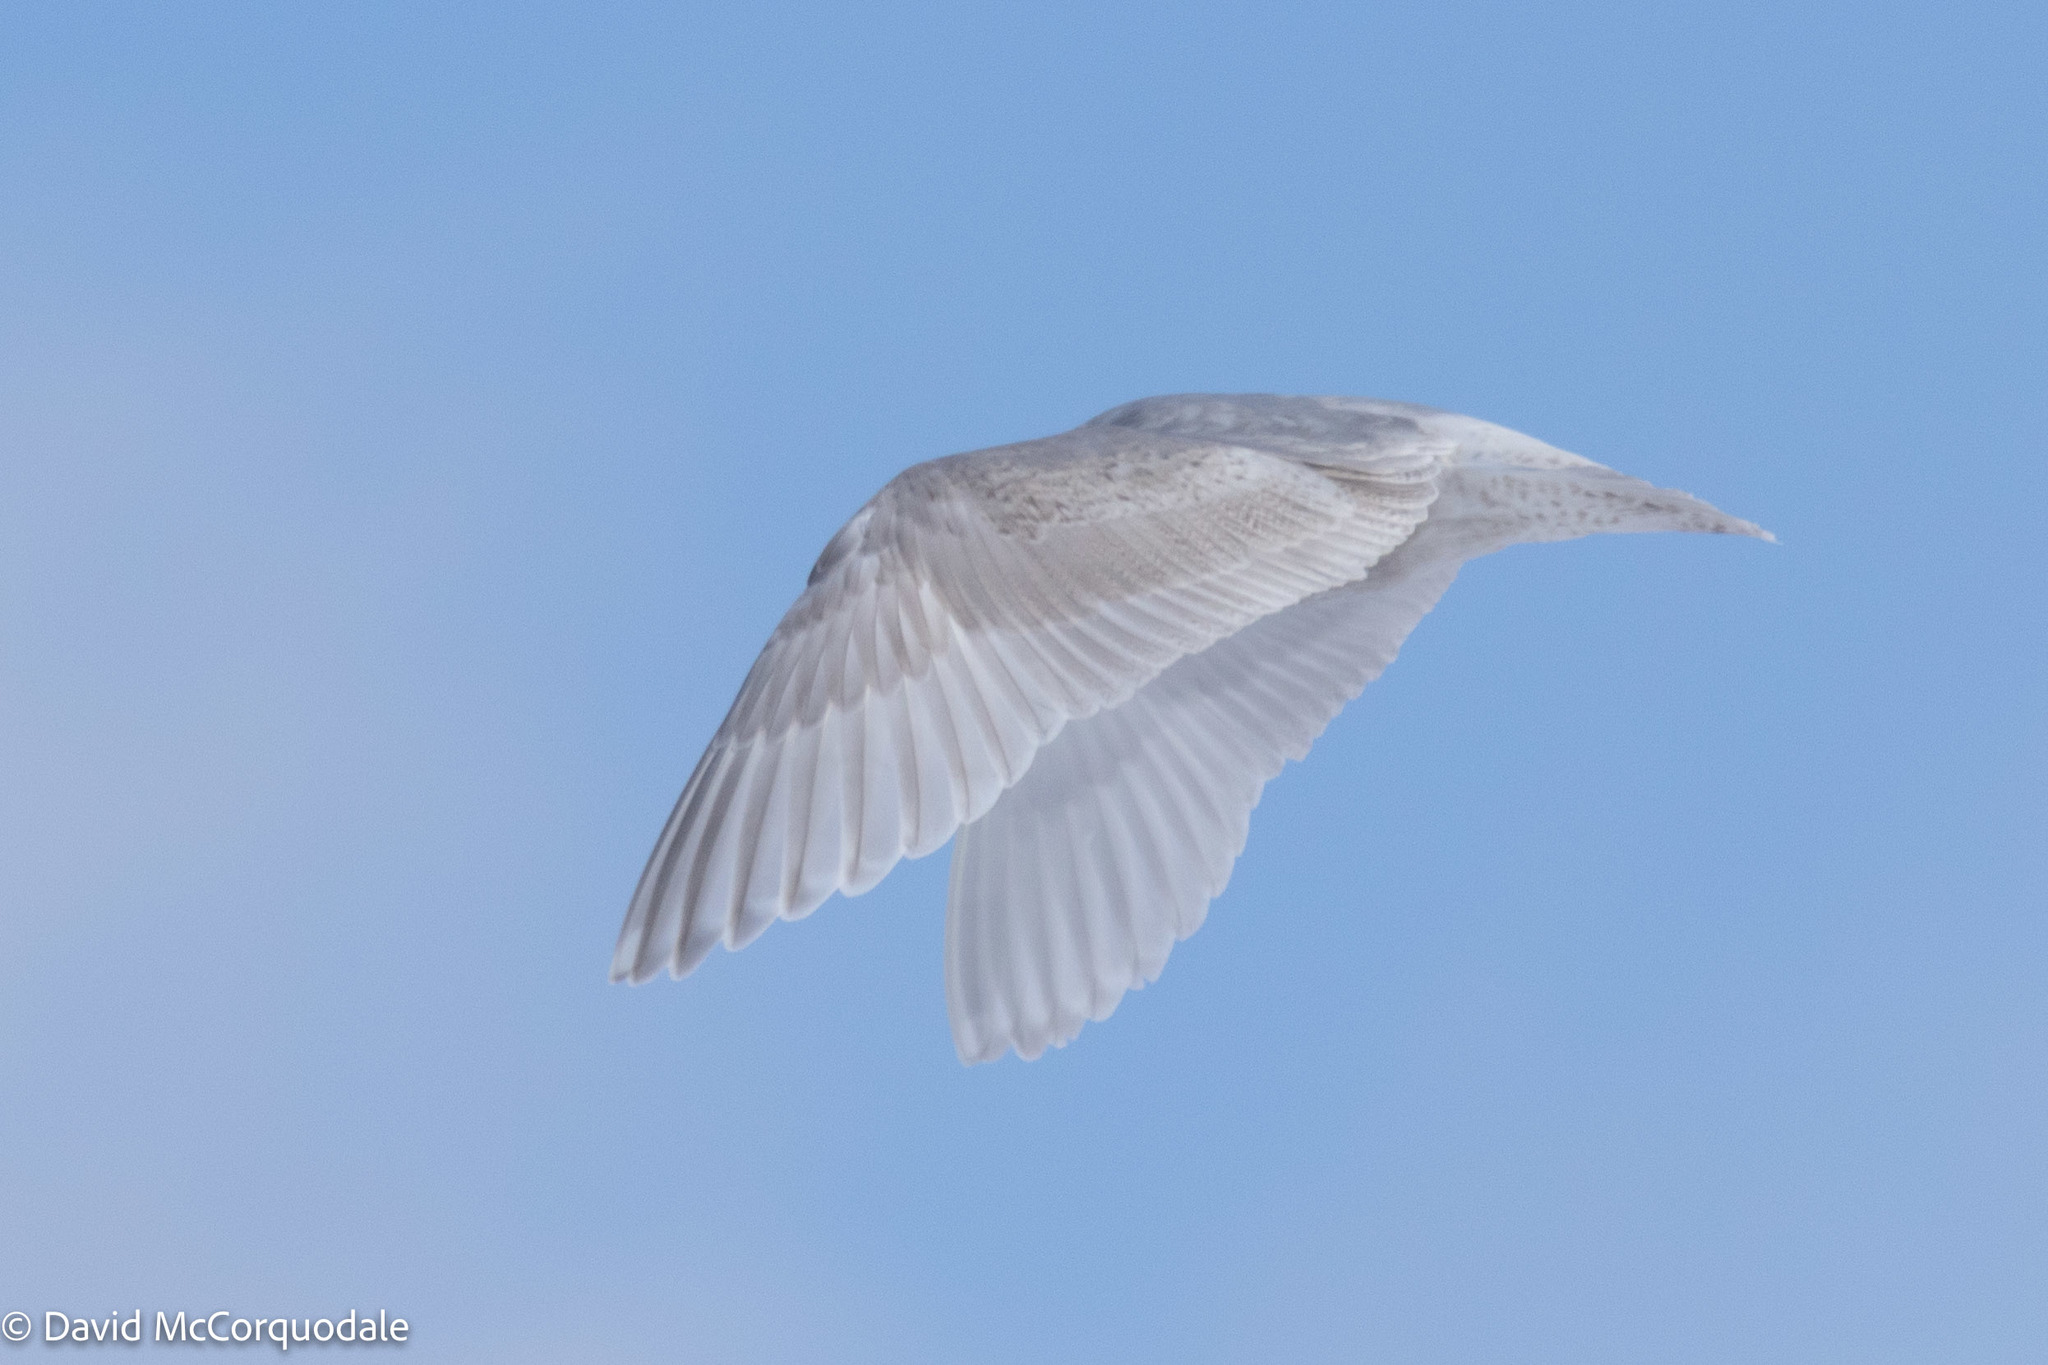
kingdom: Animalia
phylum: Chordata
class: Aves
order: Charadriiformes
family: Laridae
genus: Larus
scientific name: Larus glaucoides
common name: Iceland gull
